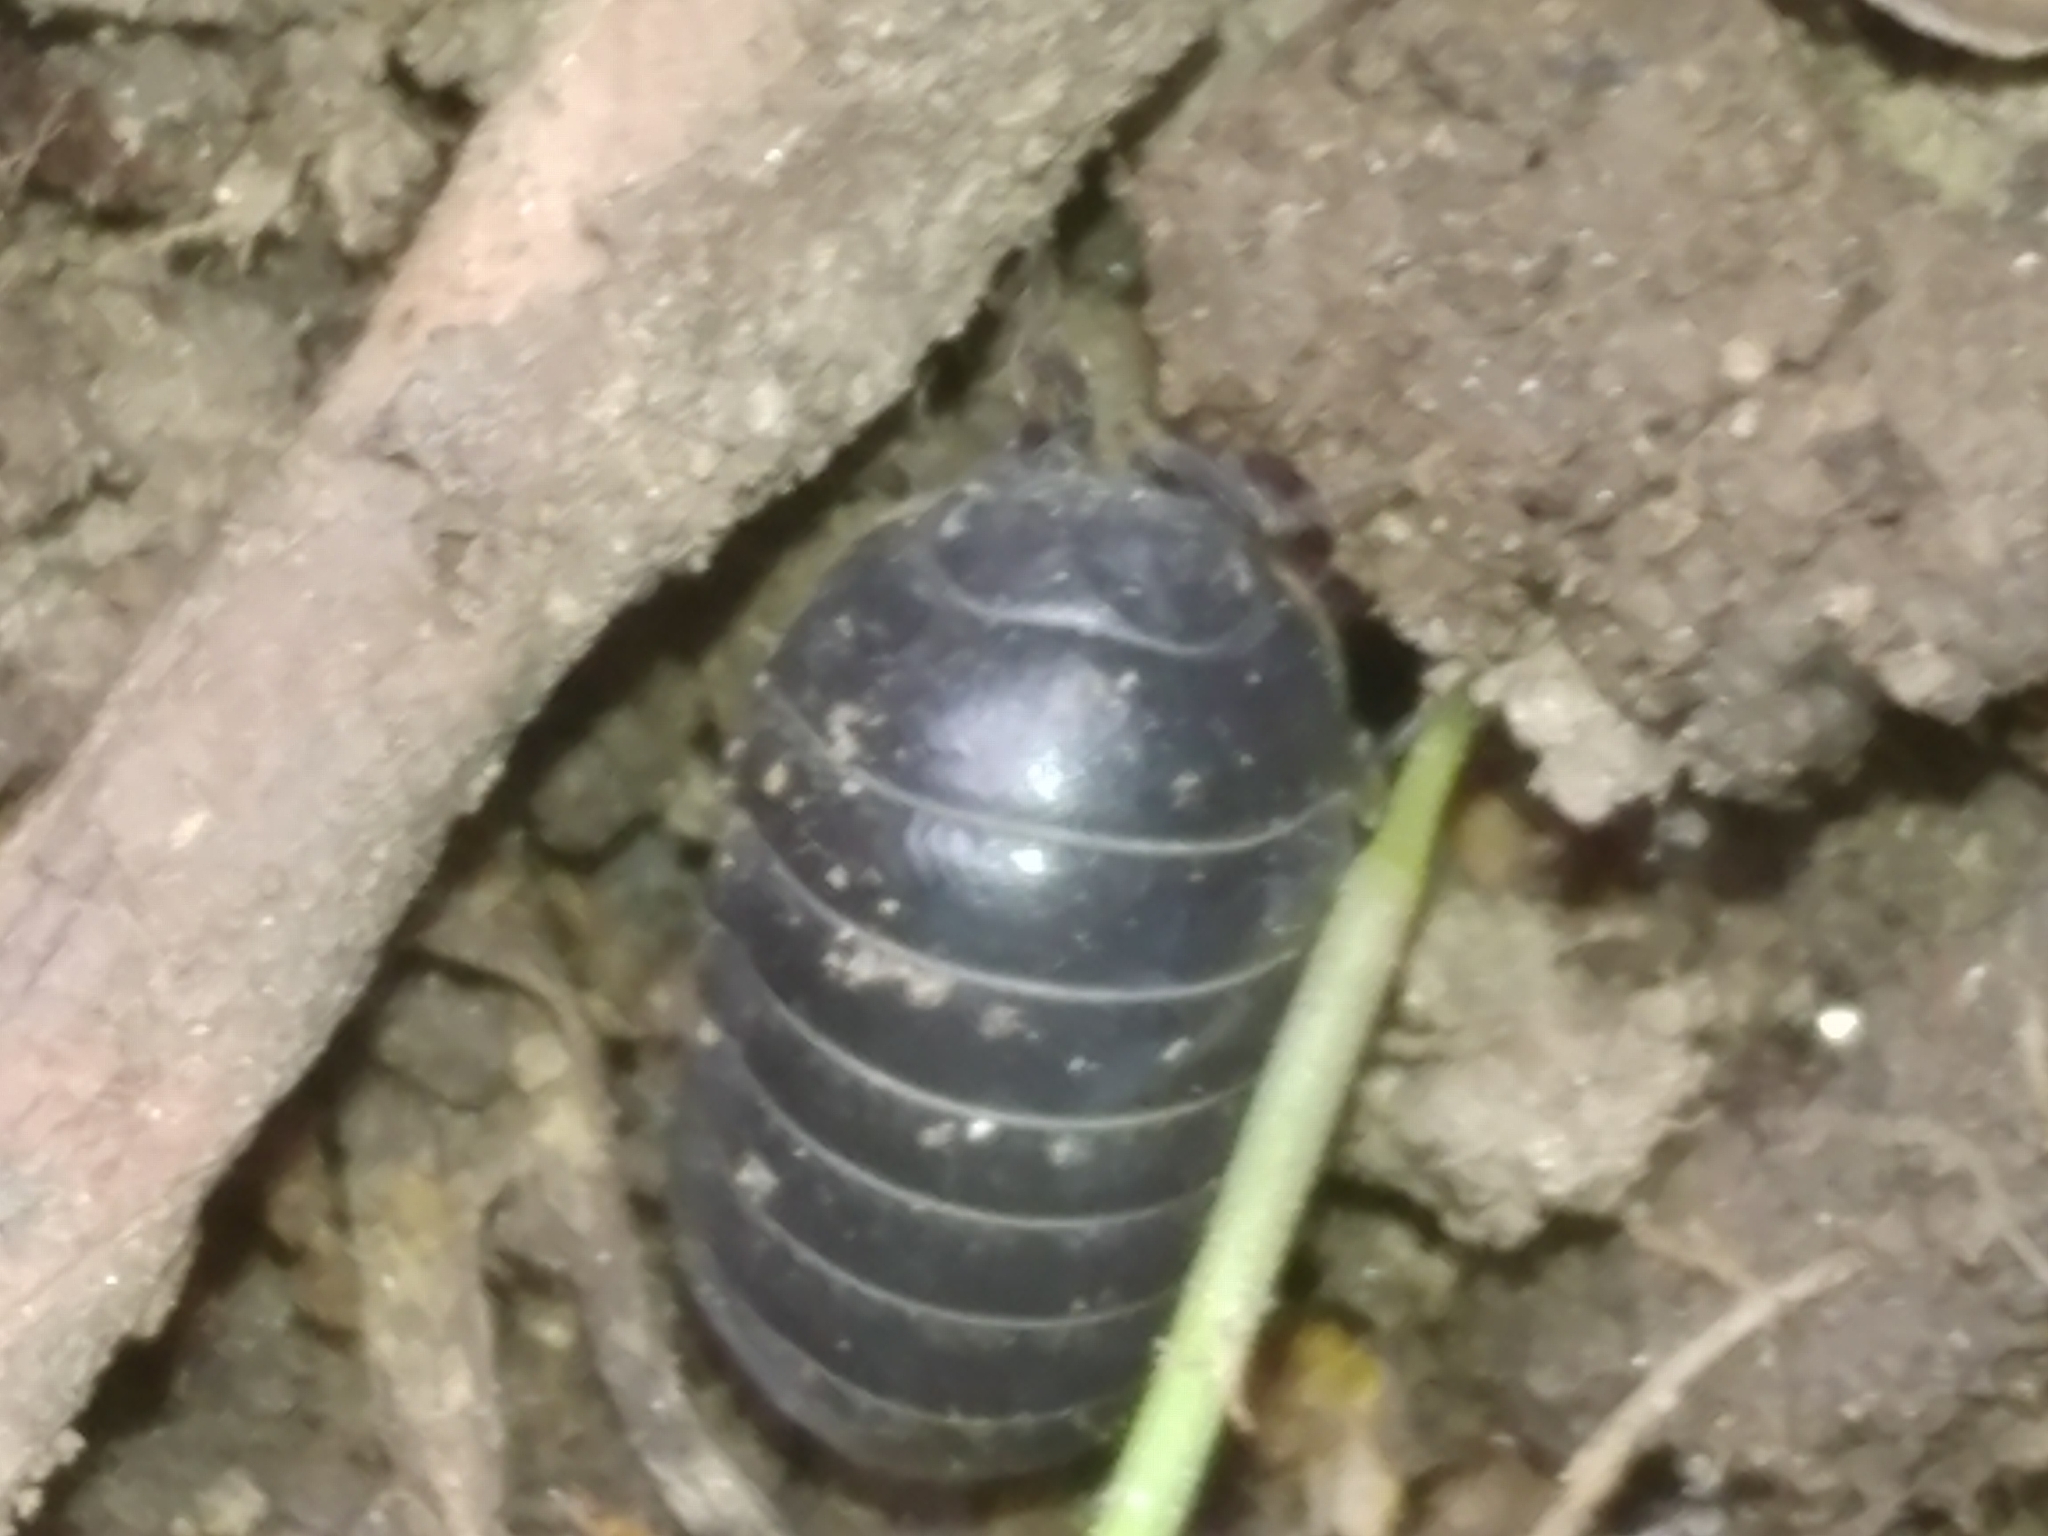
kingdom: Animalia
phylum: Arthropoda
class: Malacostraca
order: Isopoda
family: Armadillidiidae
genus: Armadillidium
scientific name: Armadillidium vulgare
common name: Common pill woodlouse
